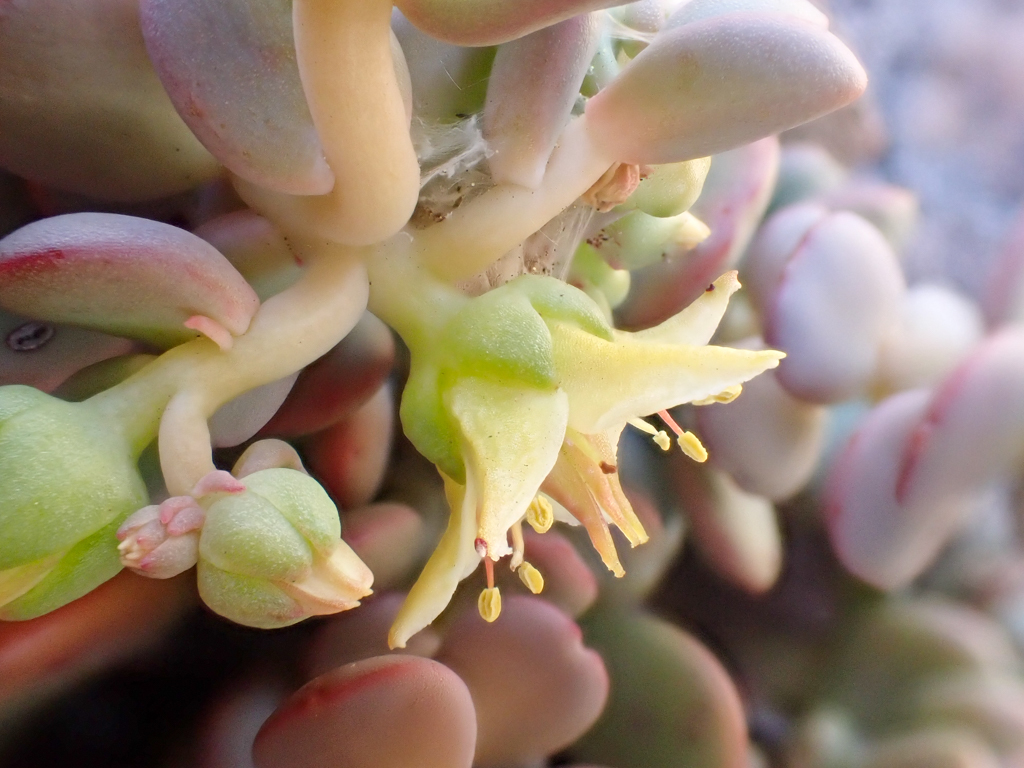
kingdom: Plantae
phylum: Tracheophyta
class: Magnoliopsida
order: Saxifragales
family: Crassulaceae
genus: Sedum
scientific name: Sedum flavidum
